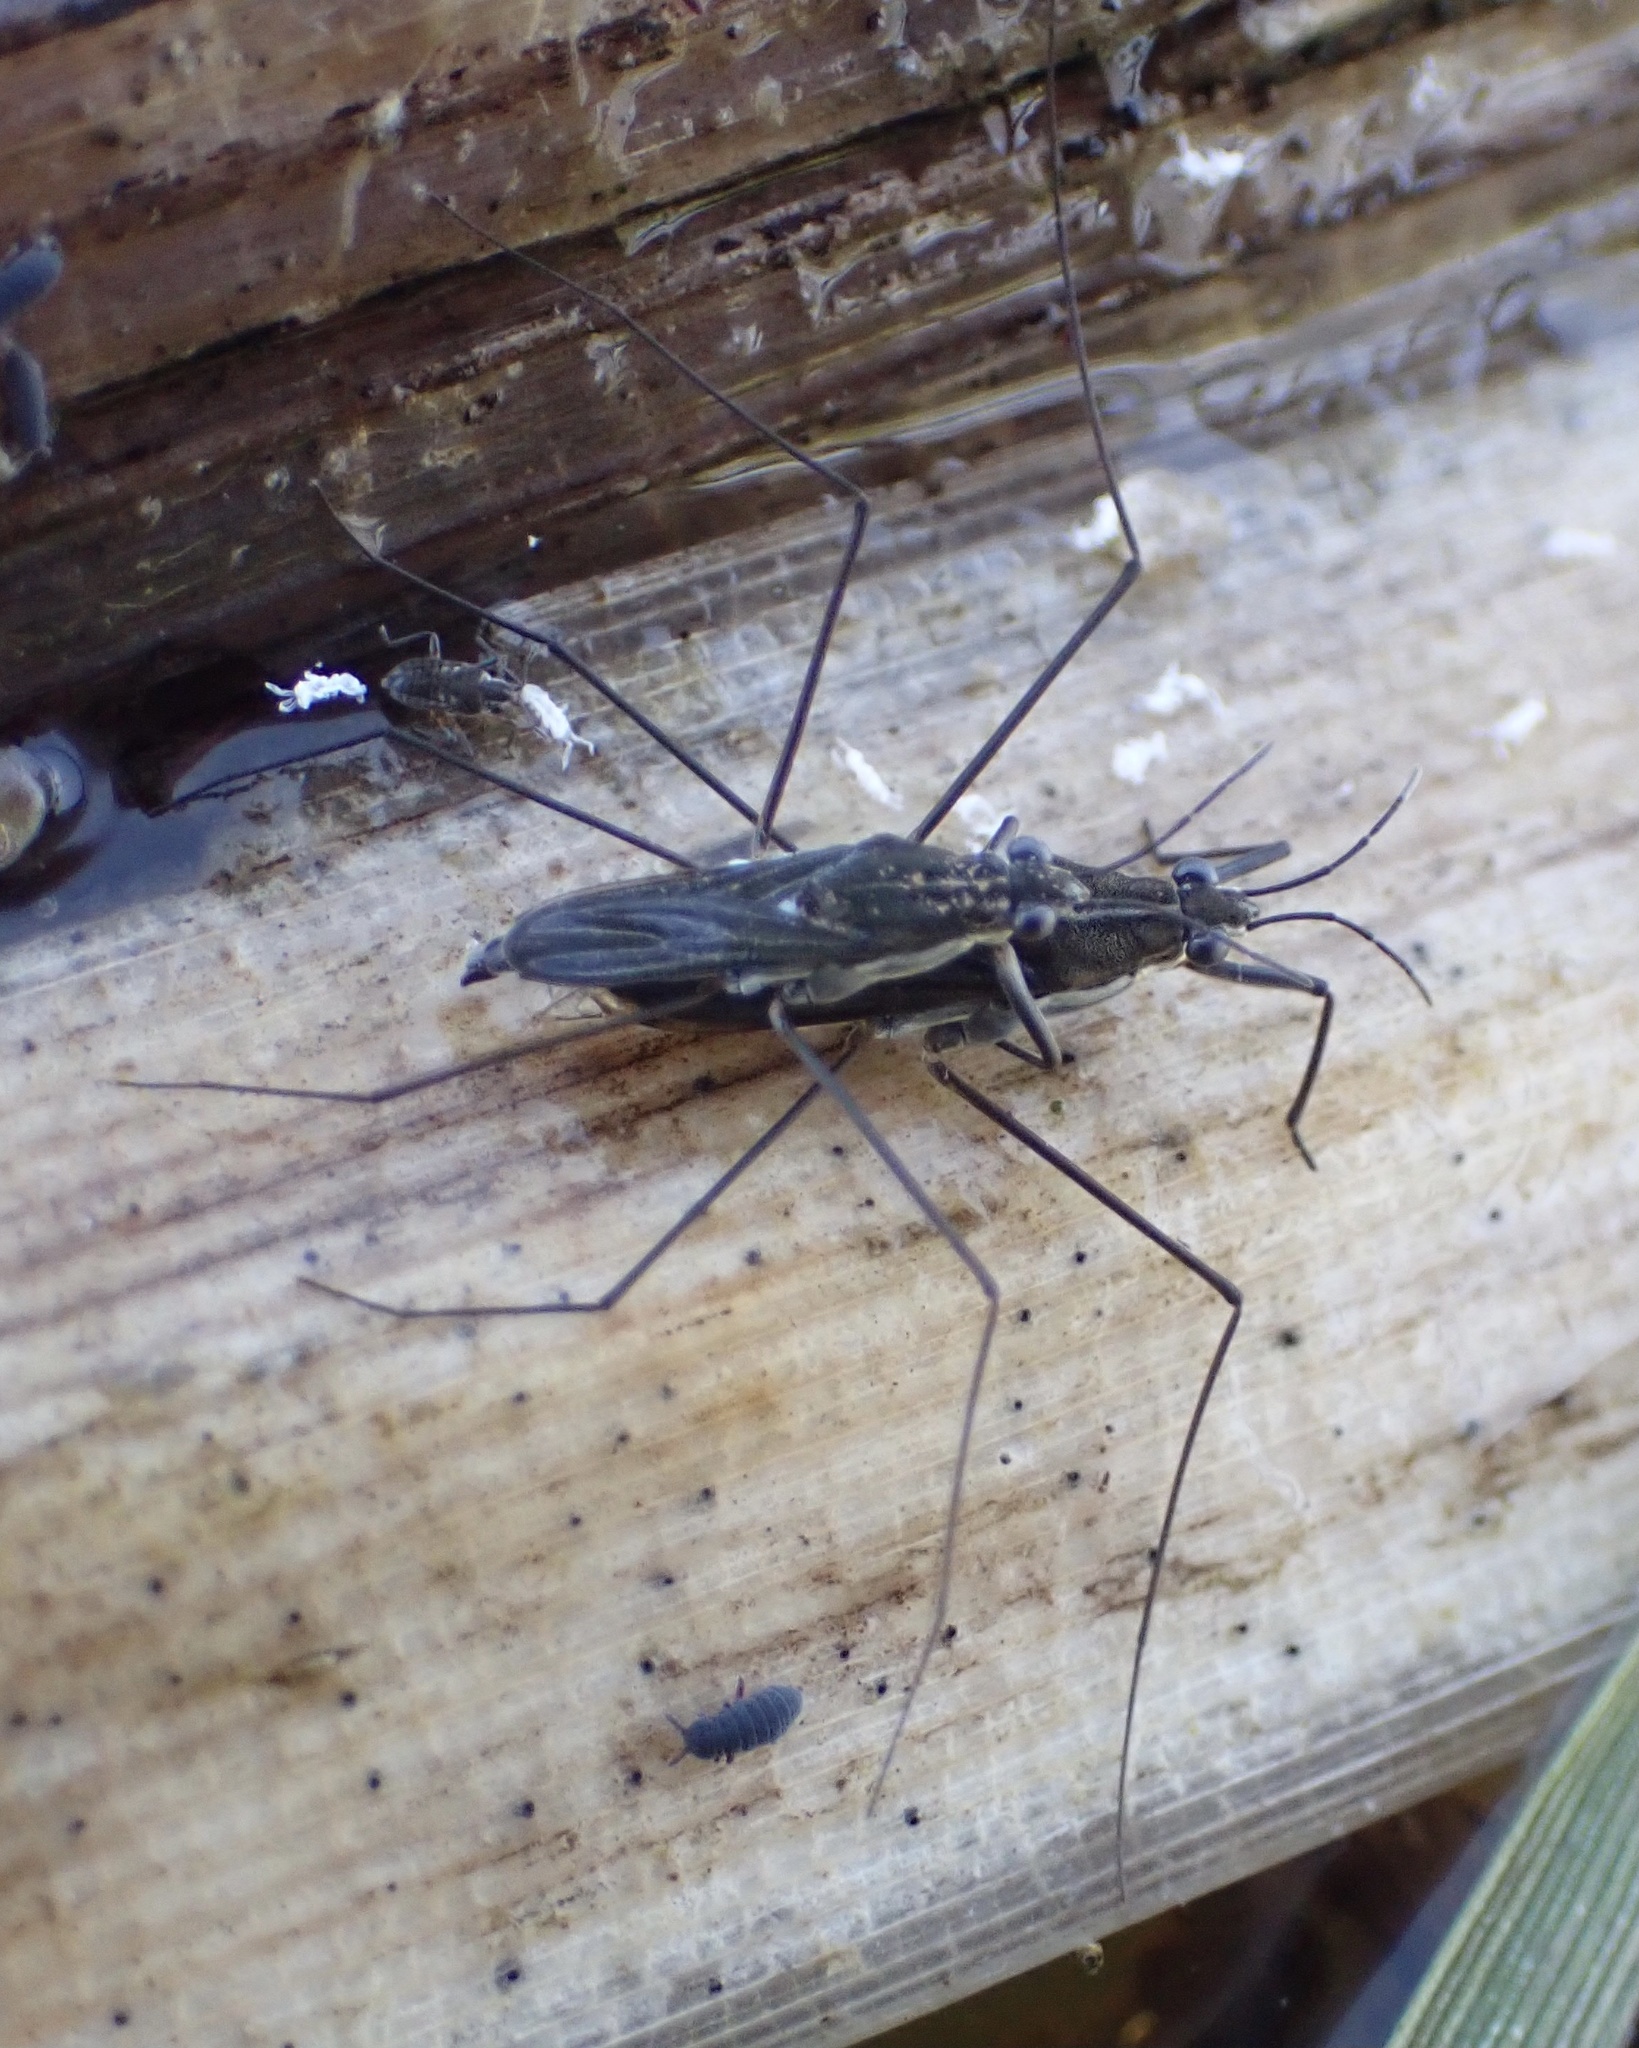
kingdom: Animalia
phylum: Arthropoda
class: Insecta
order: Hemiptera
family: Gerridae
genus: Gerris
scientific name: Gerris
